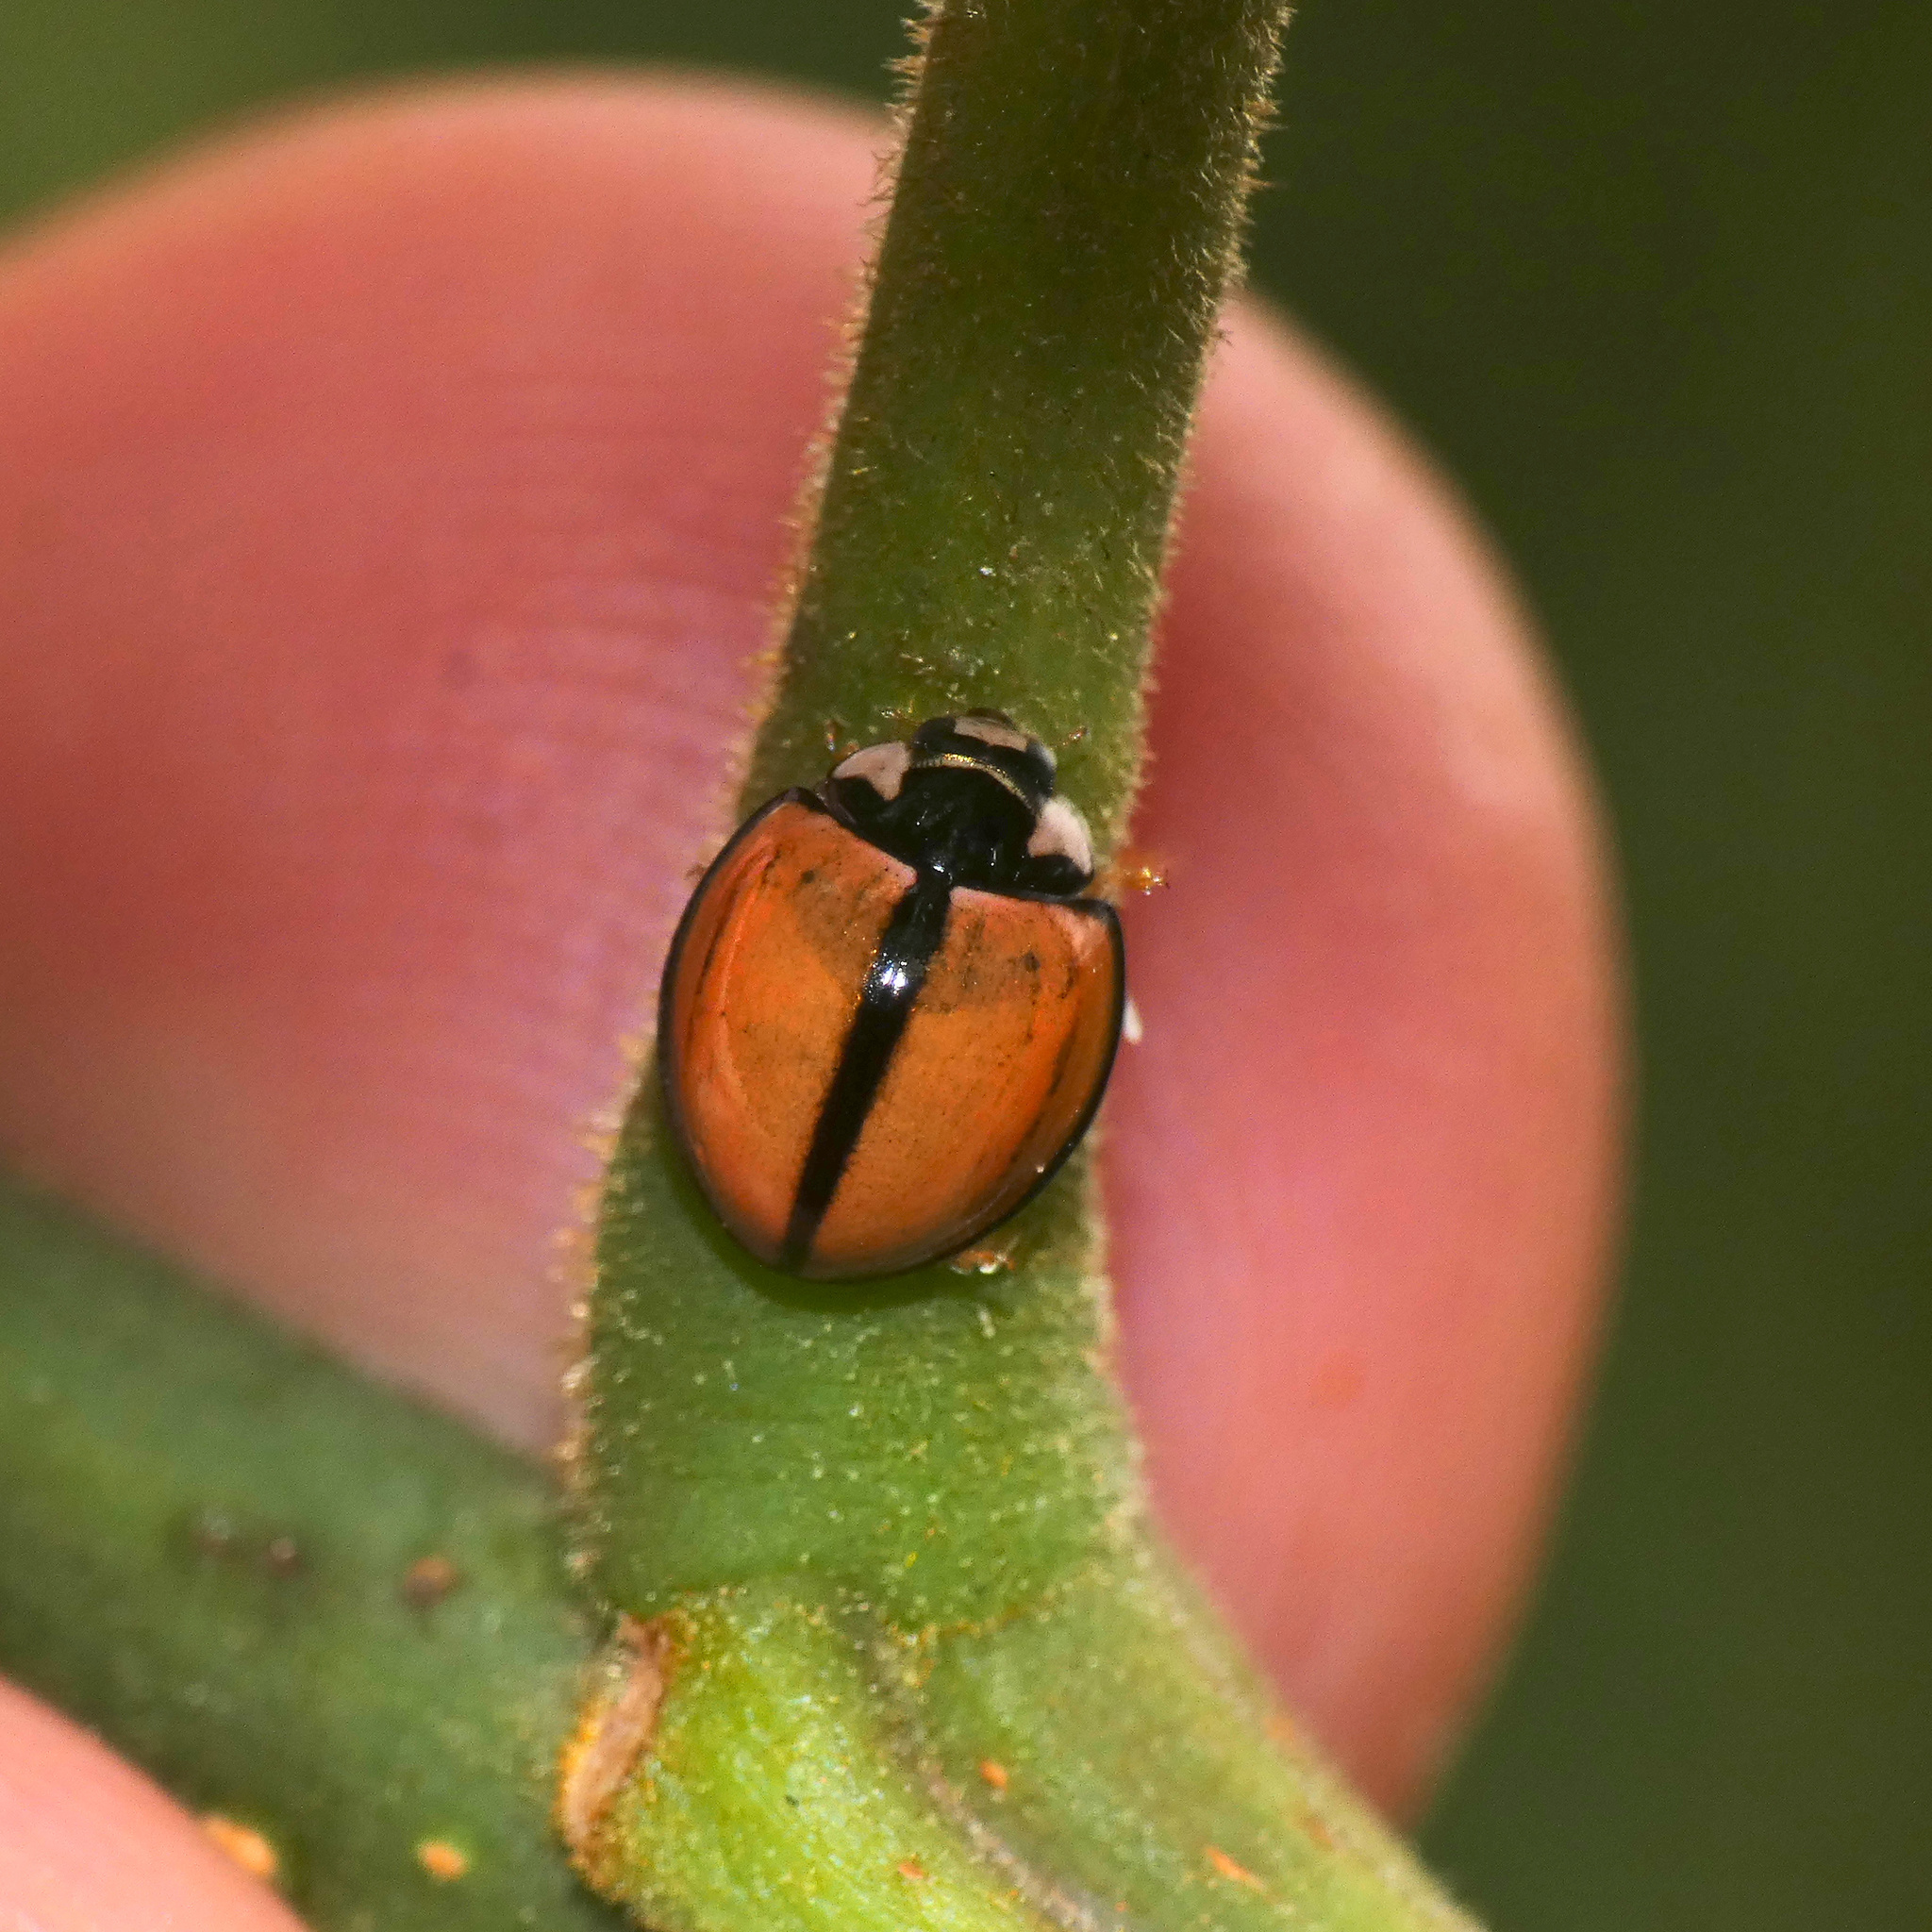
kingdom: Animalia
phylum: Arthropoda
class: Insecta
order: Coleoptera
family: Coccinellidae
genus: Cheilomenes
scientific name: Cheilomenes propinqua
